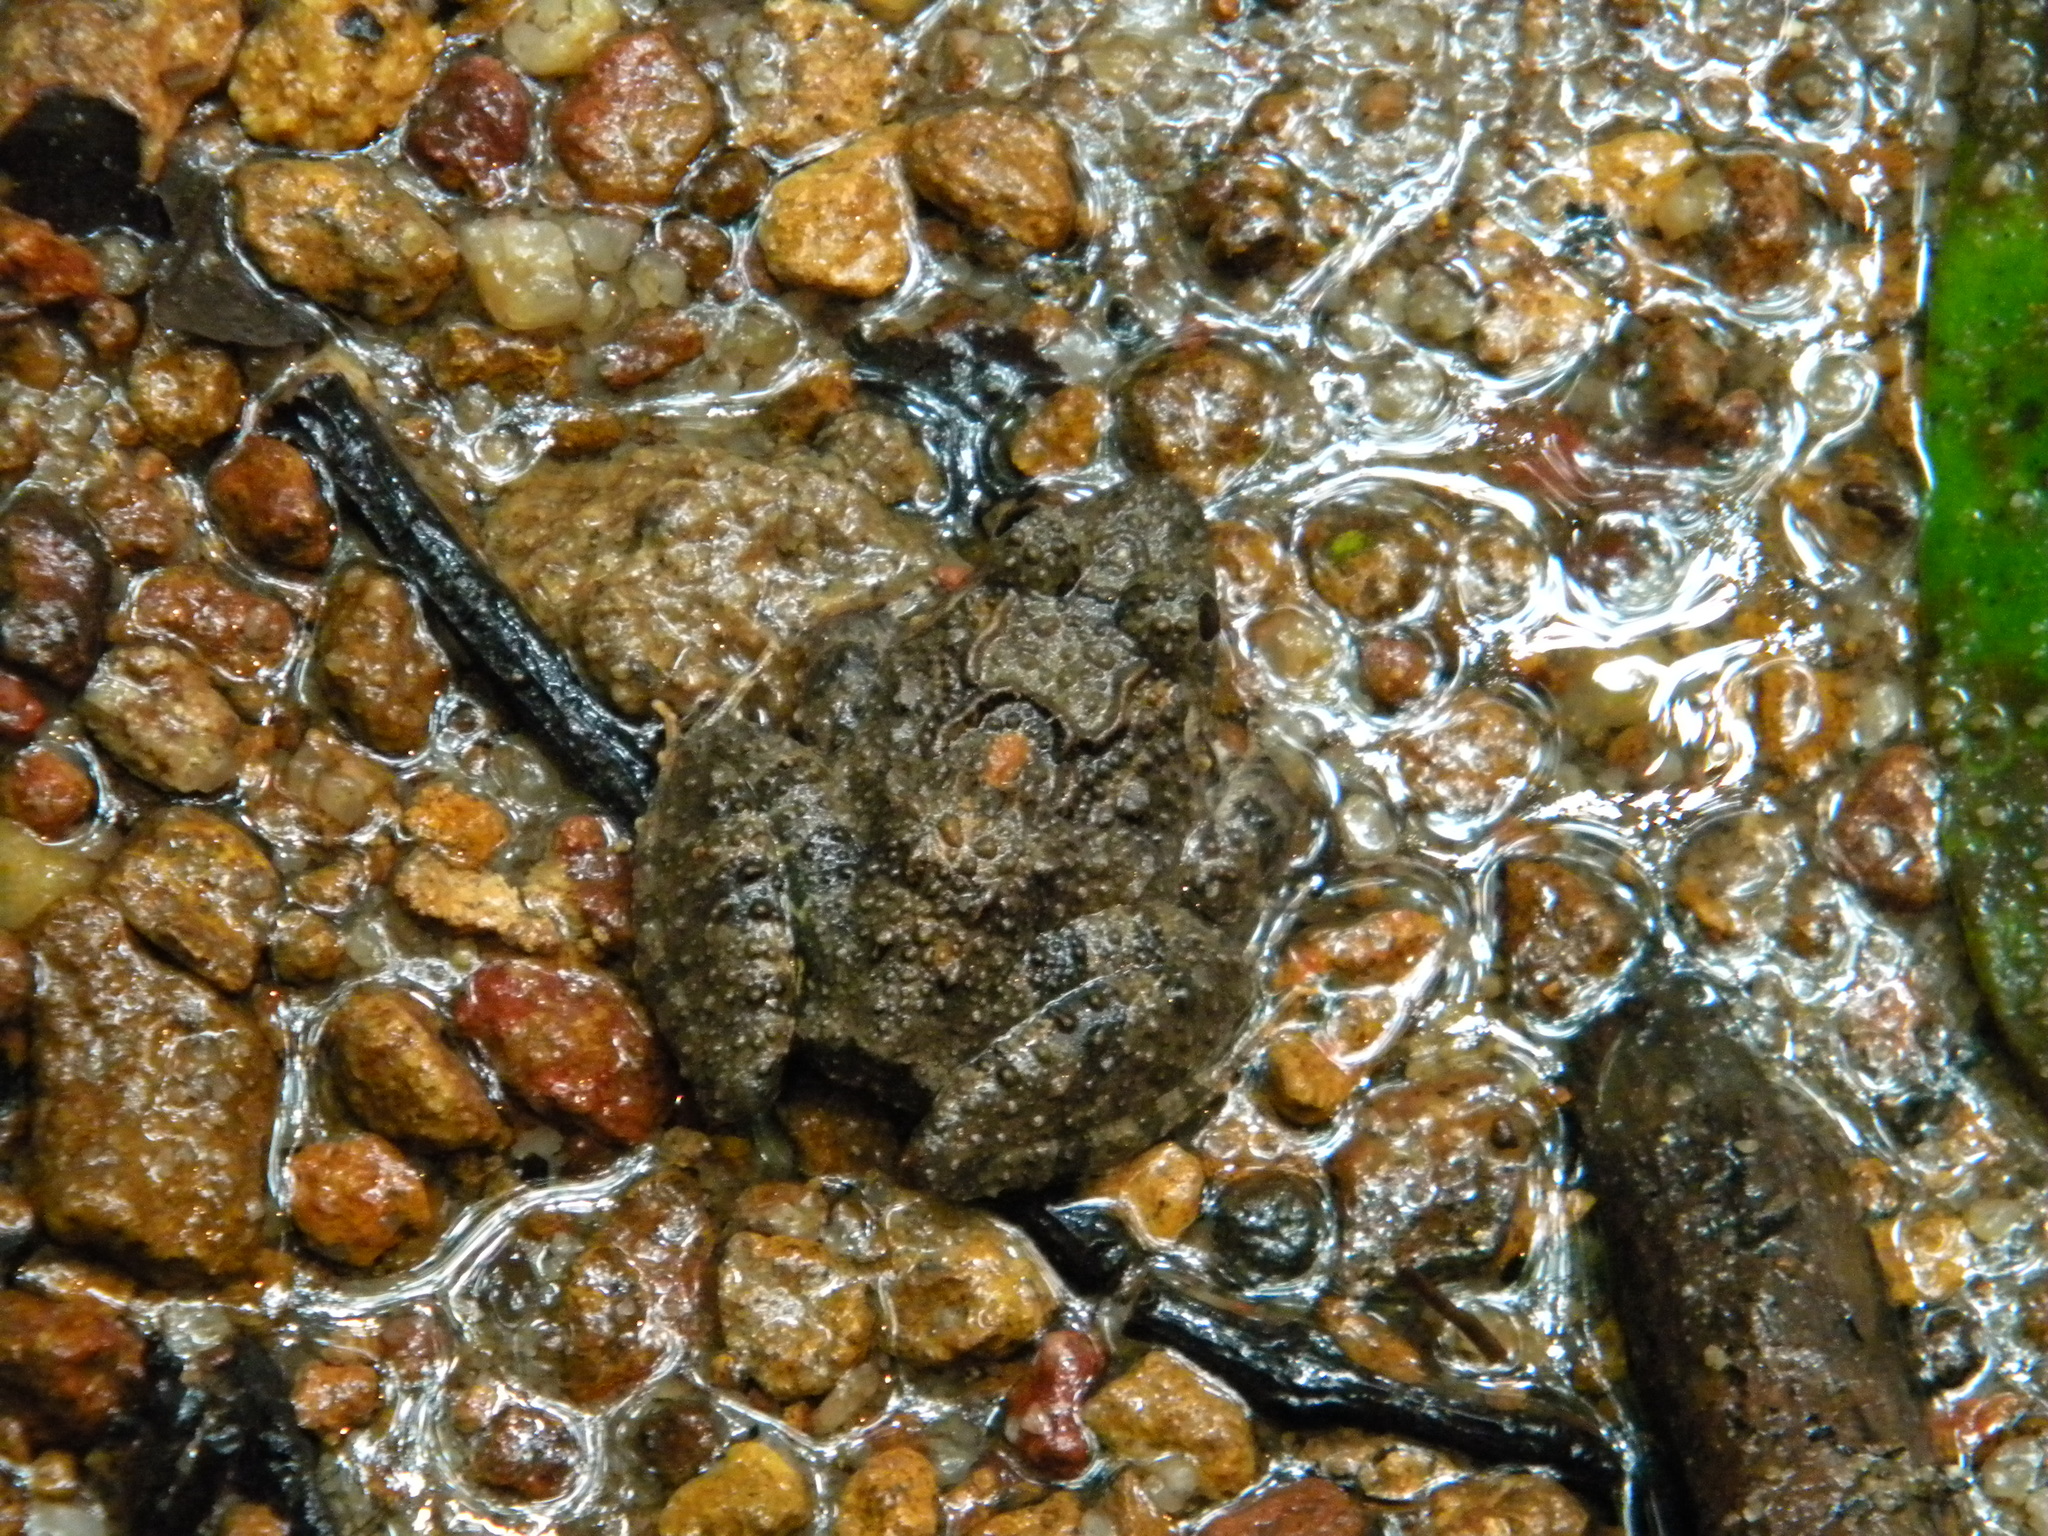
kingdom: Animalia
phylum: Chordata
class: Amphibia
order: Anura
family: Dicroglossidae
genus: Minervarya
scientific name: Minervarya keralensis
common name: Dubois' hill frog
